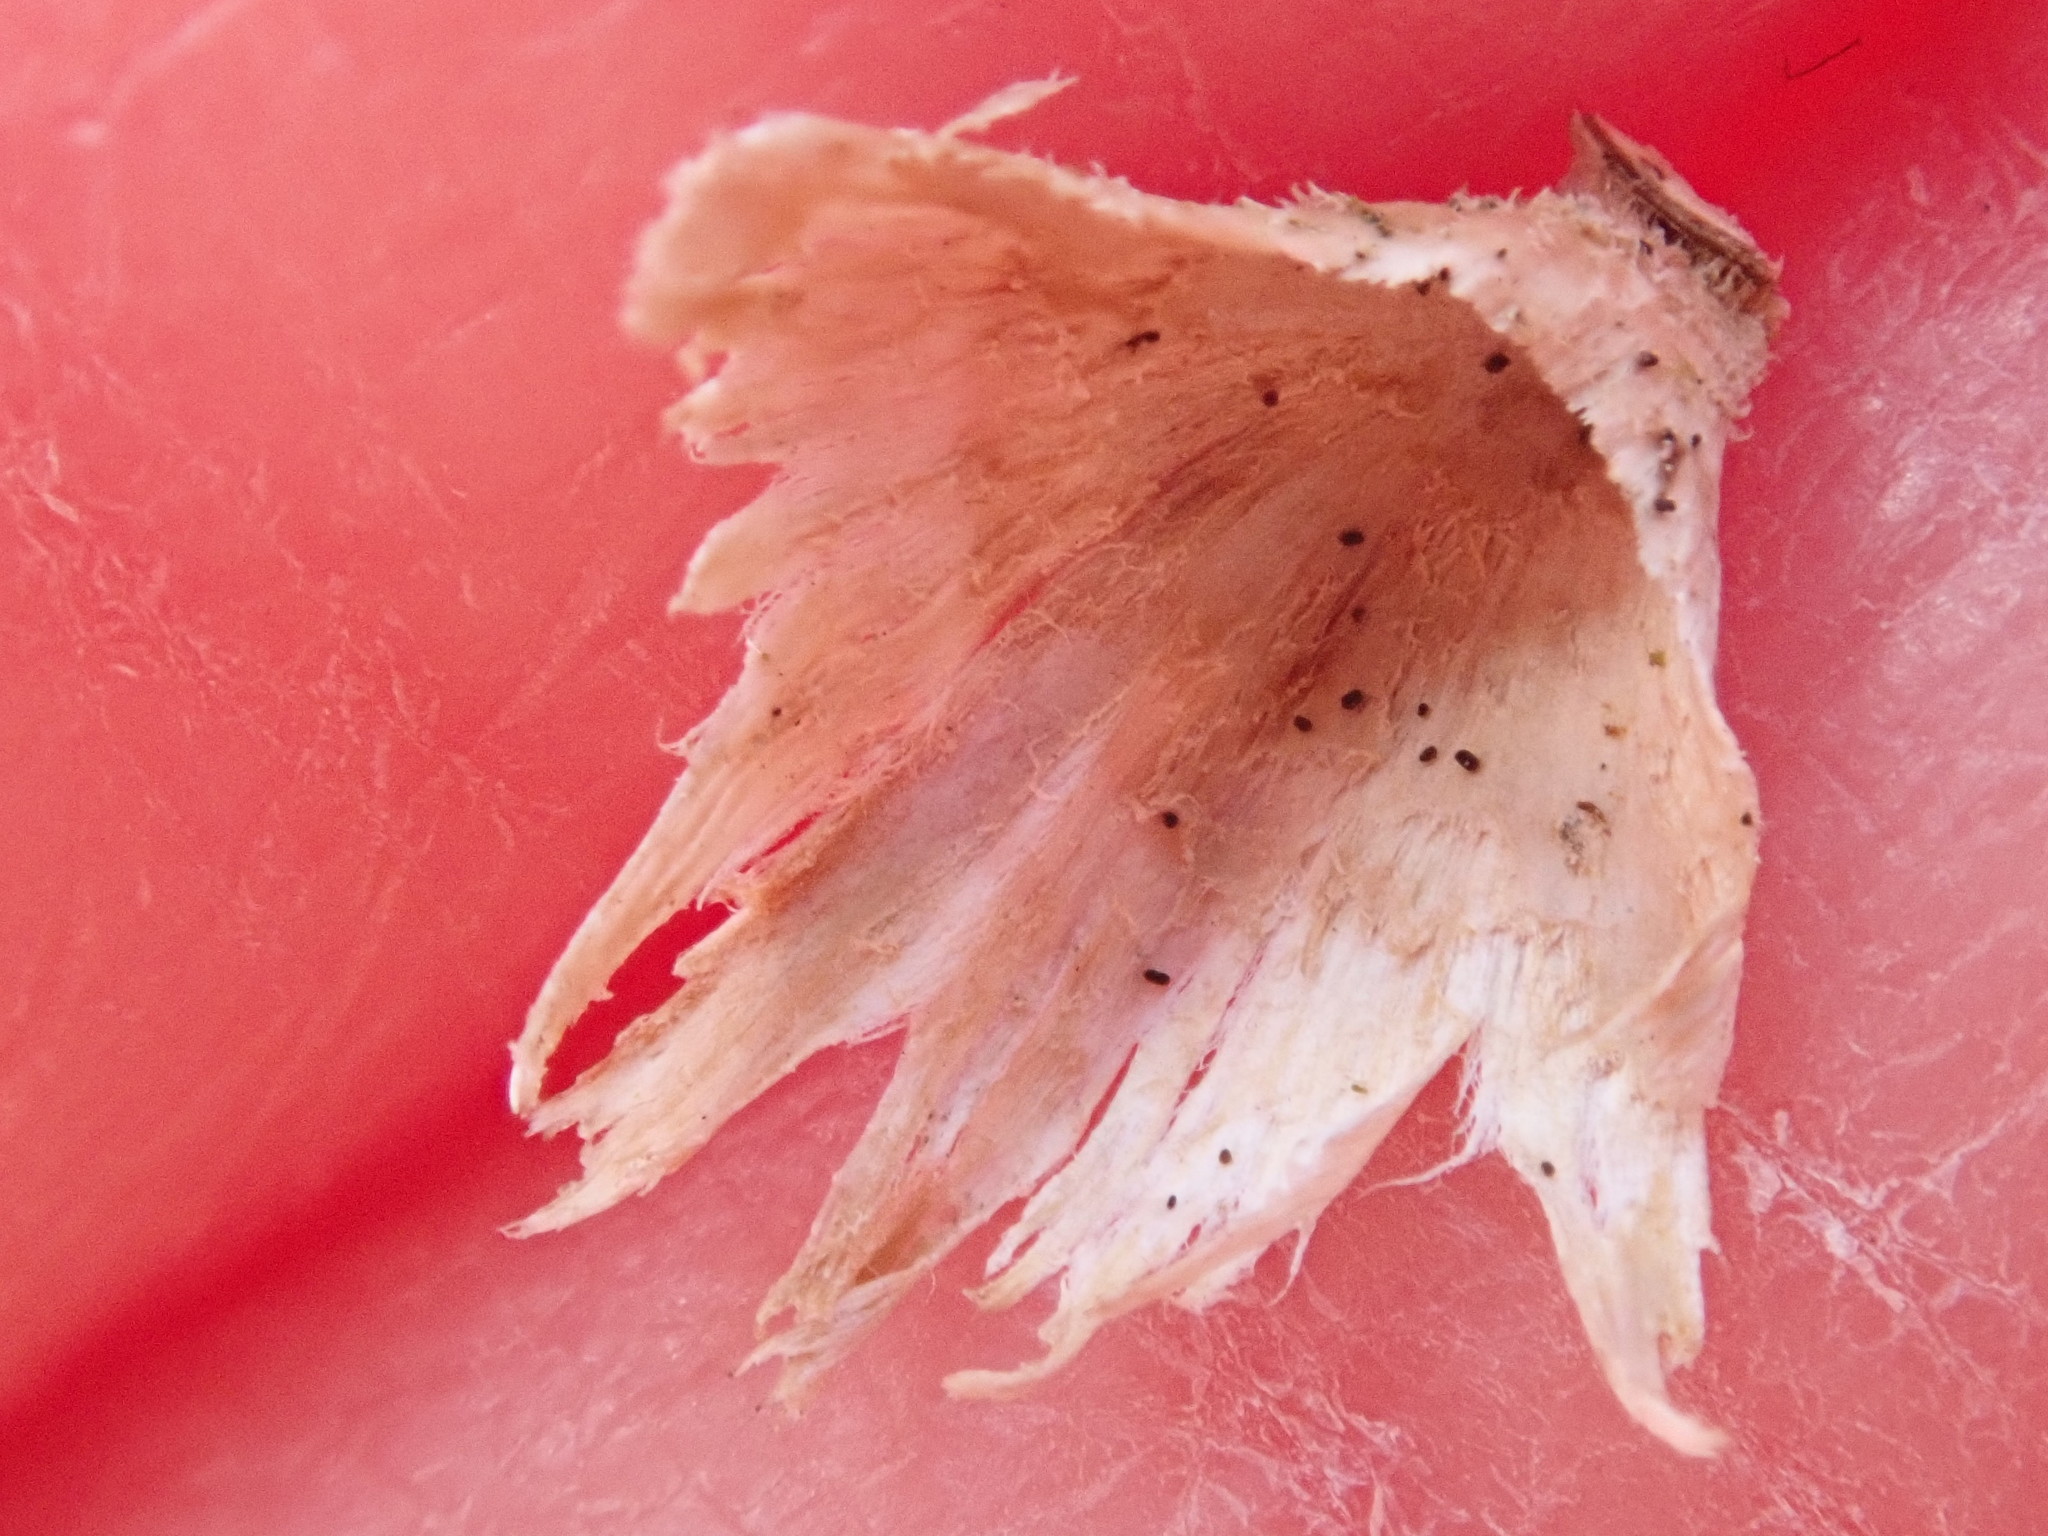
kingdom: Fungi
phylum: Basidiomycota
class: Agaricomycetes
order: Russulales
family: Stereaceae
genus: Stereum
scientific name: Stereum striatum
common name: Silky parchment
